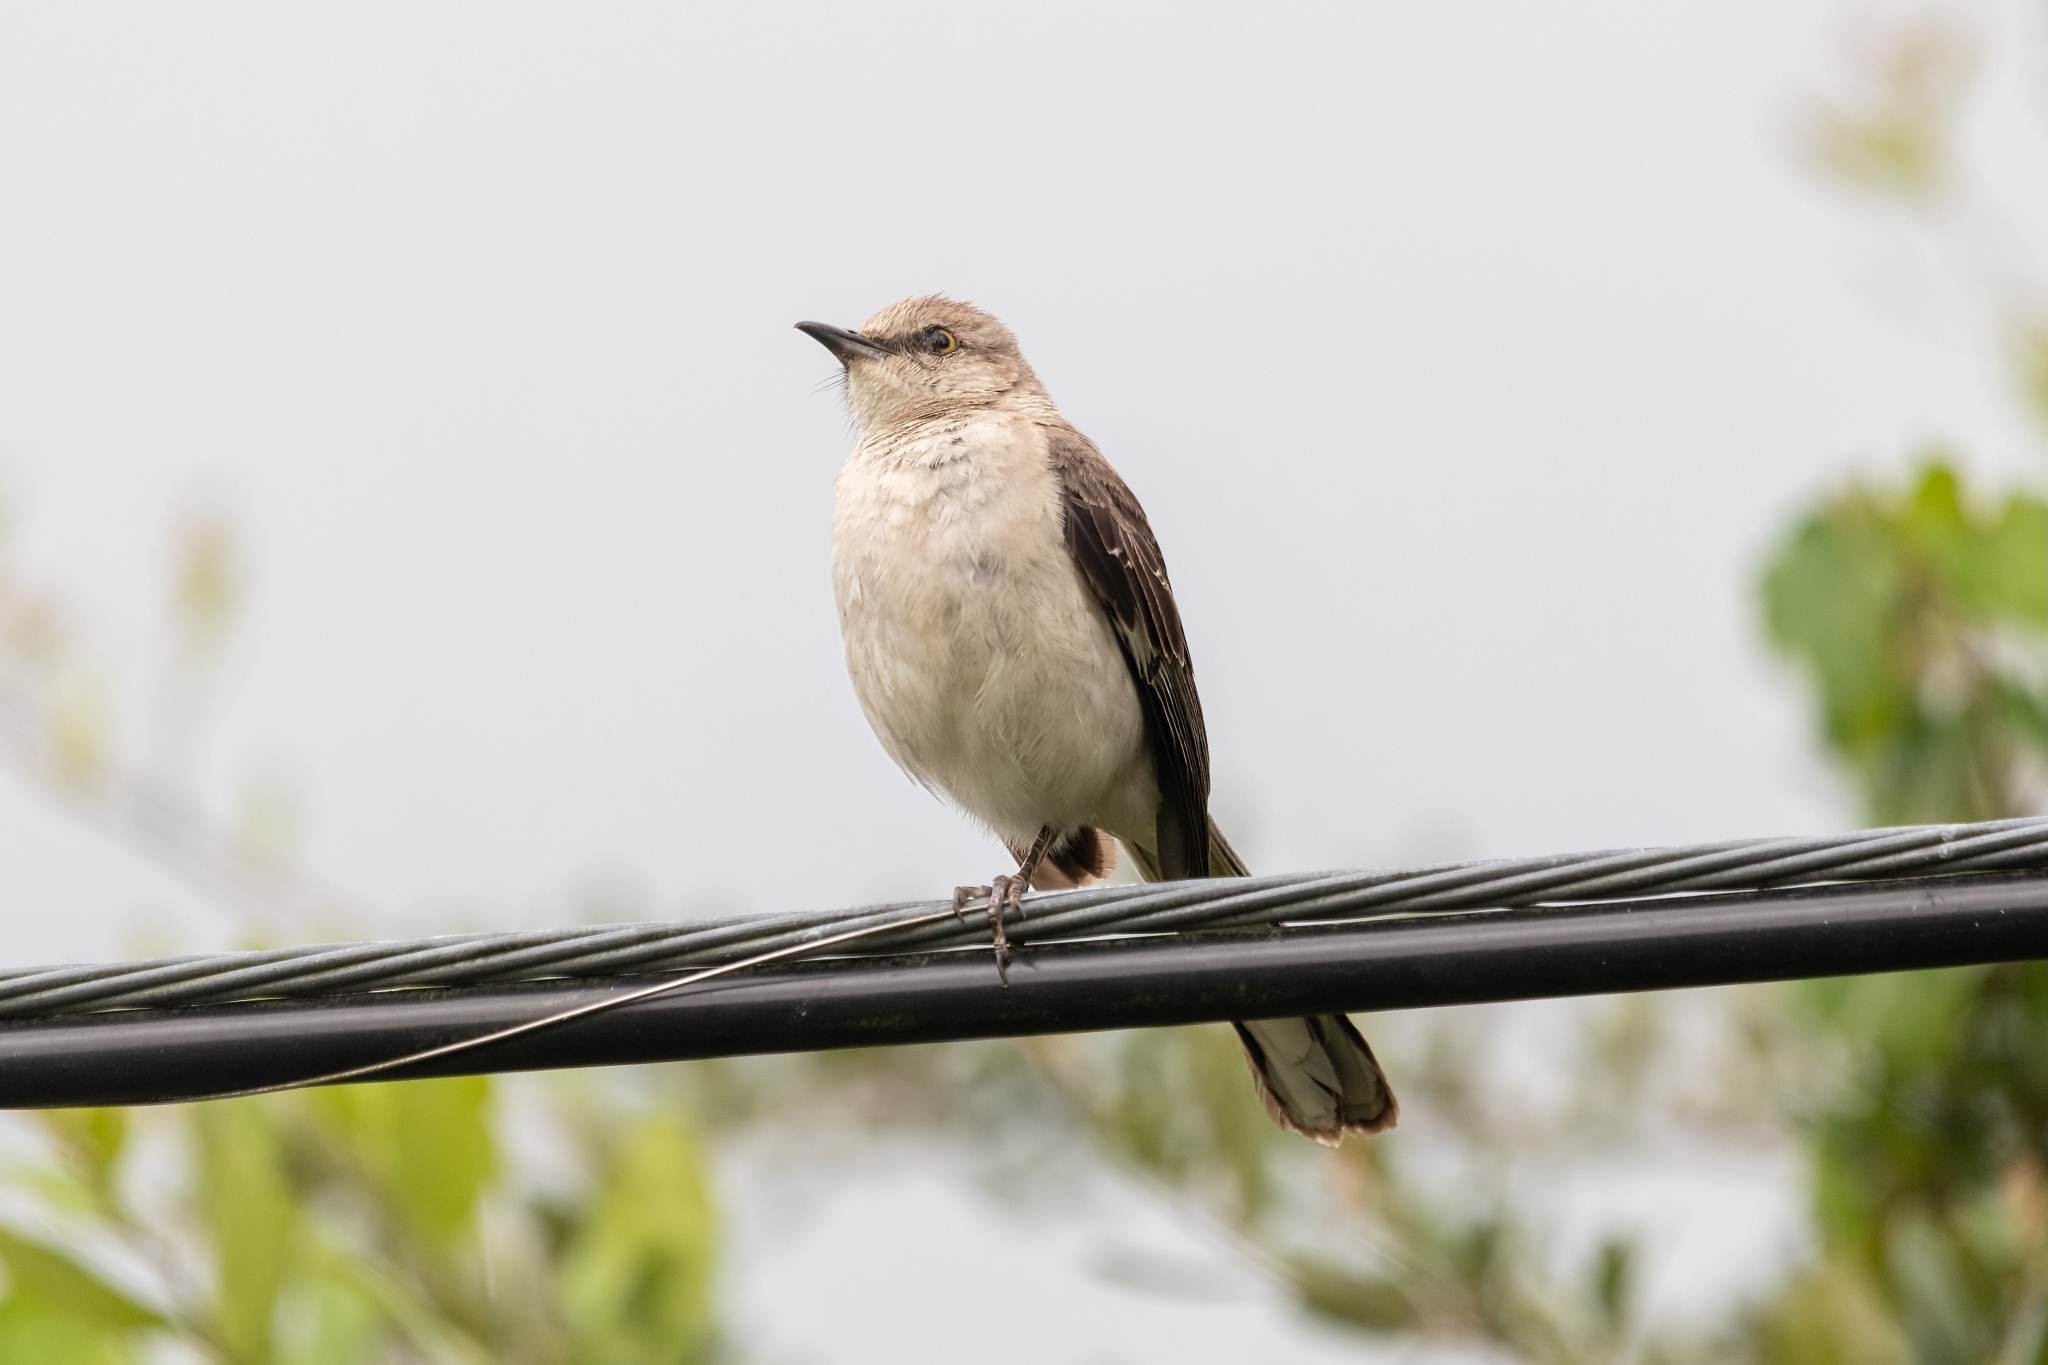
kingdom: Animalia
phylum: Chordata
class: Aves
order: Passeriformes
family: Mimidae
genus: Mimus
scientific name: Mimus polyglottos
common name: Northern mockingbird
